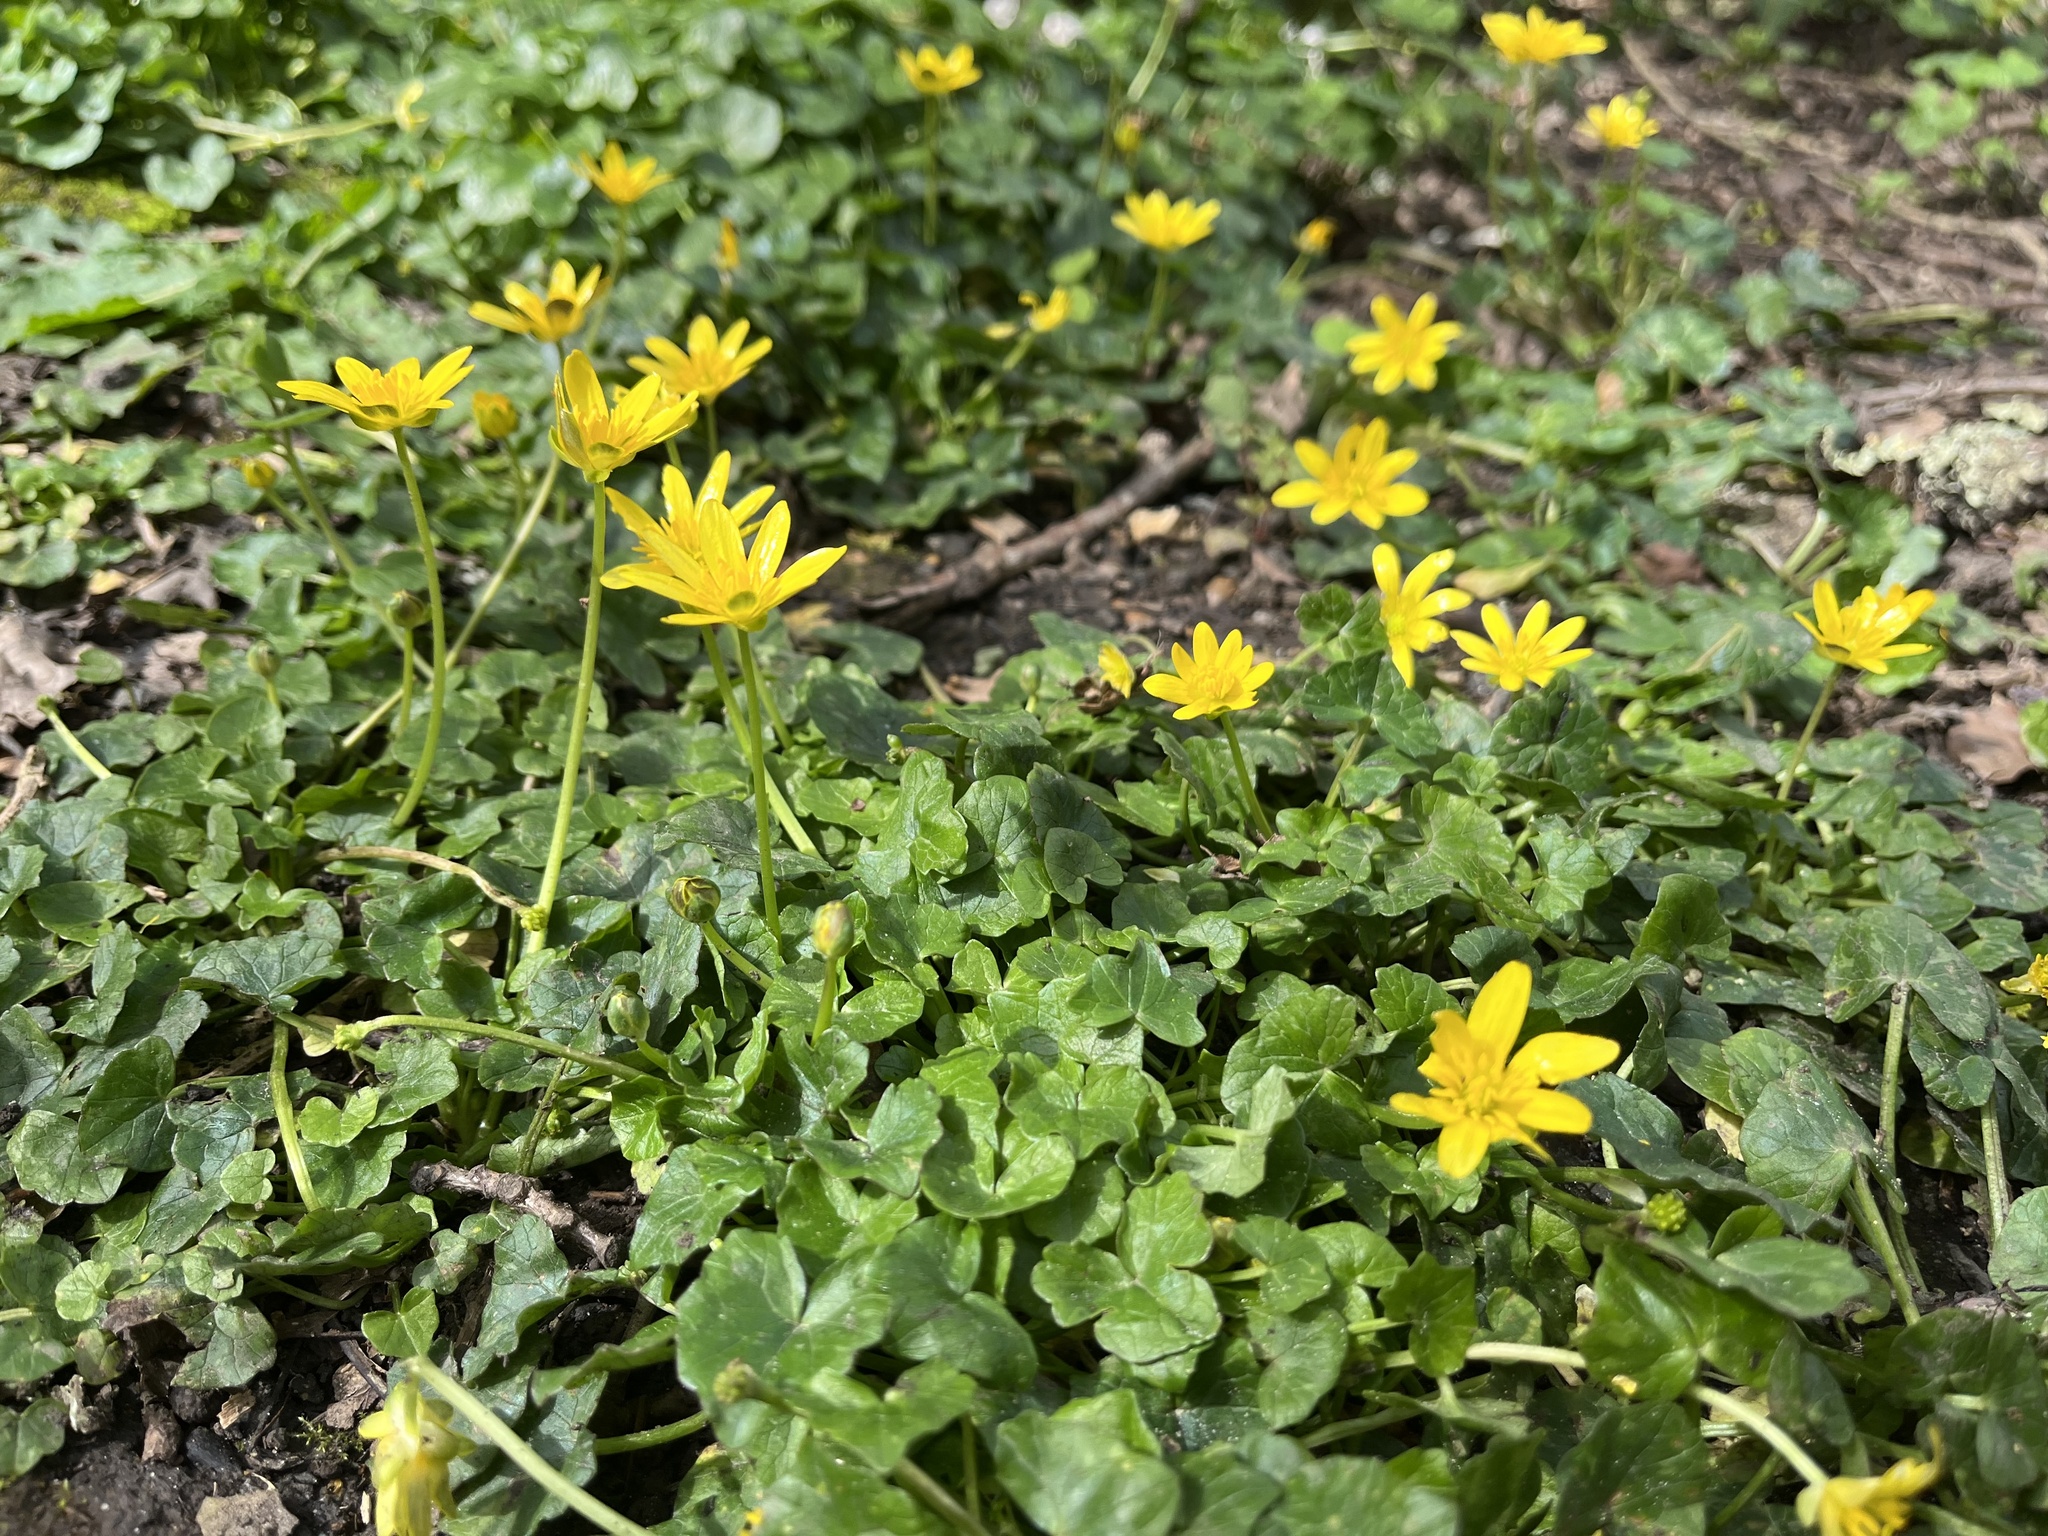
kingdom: Plantae
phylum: Tracheophyta
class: Magnoliopsida
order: Ranunculales
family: Ranunculaceae
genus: Ficaria
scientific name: Ficaria verna
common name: Lesser celandine
